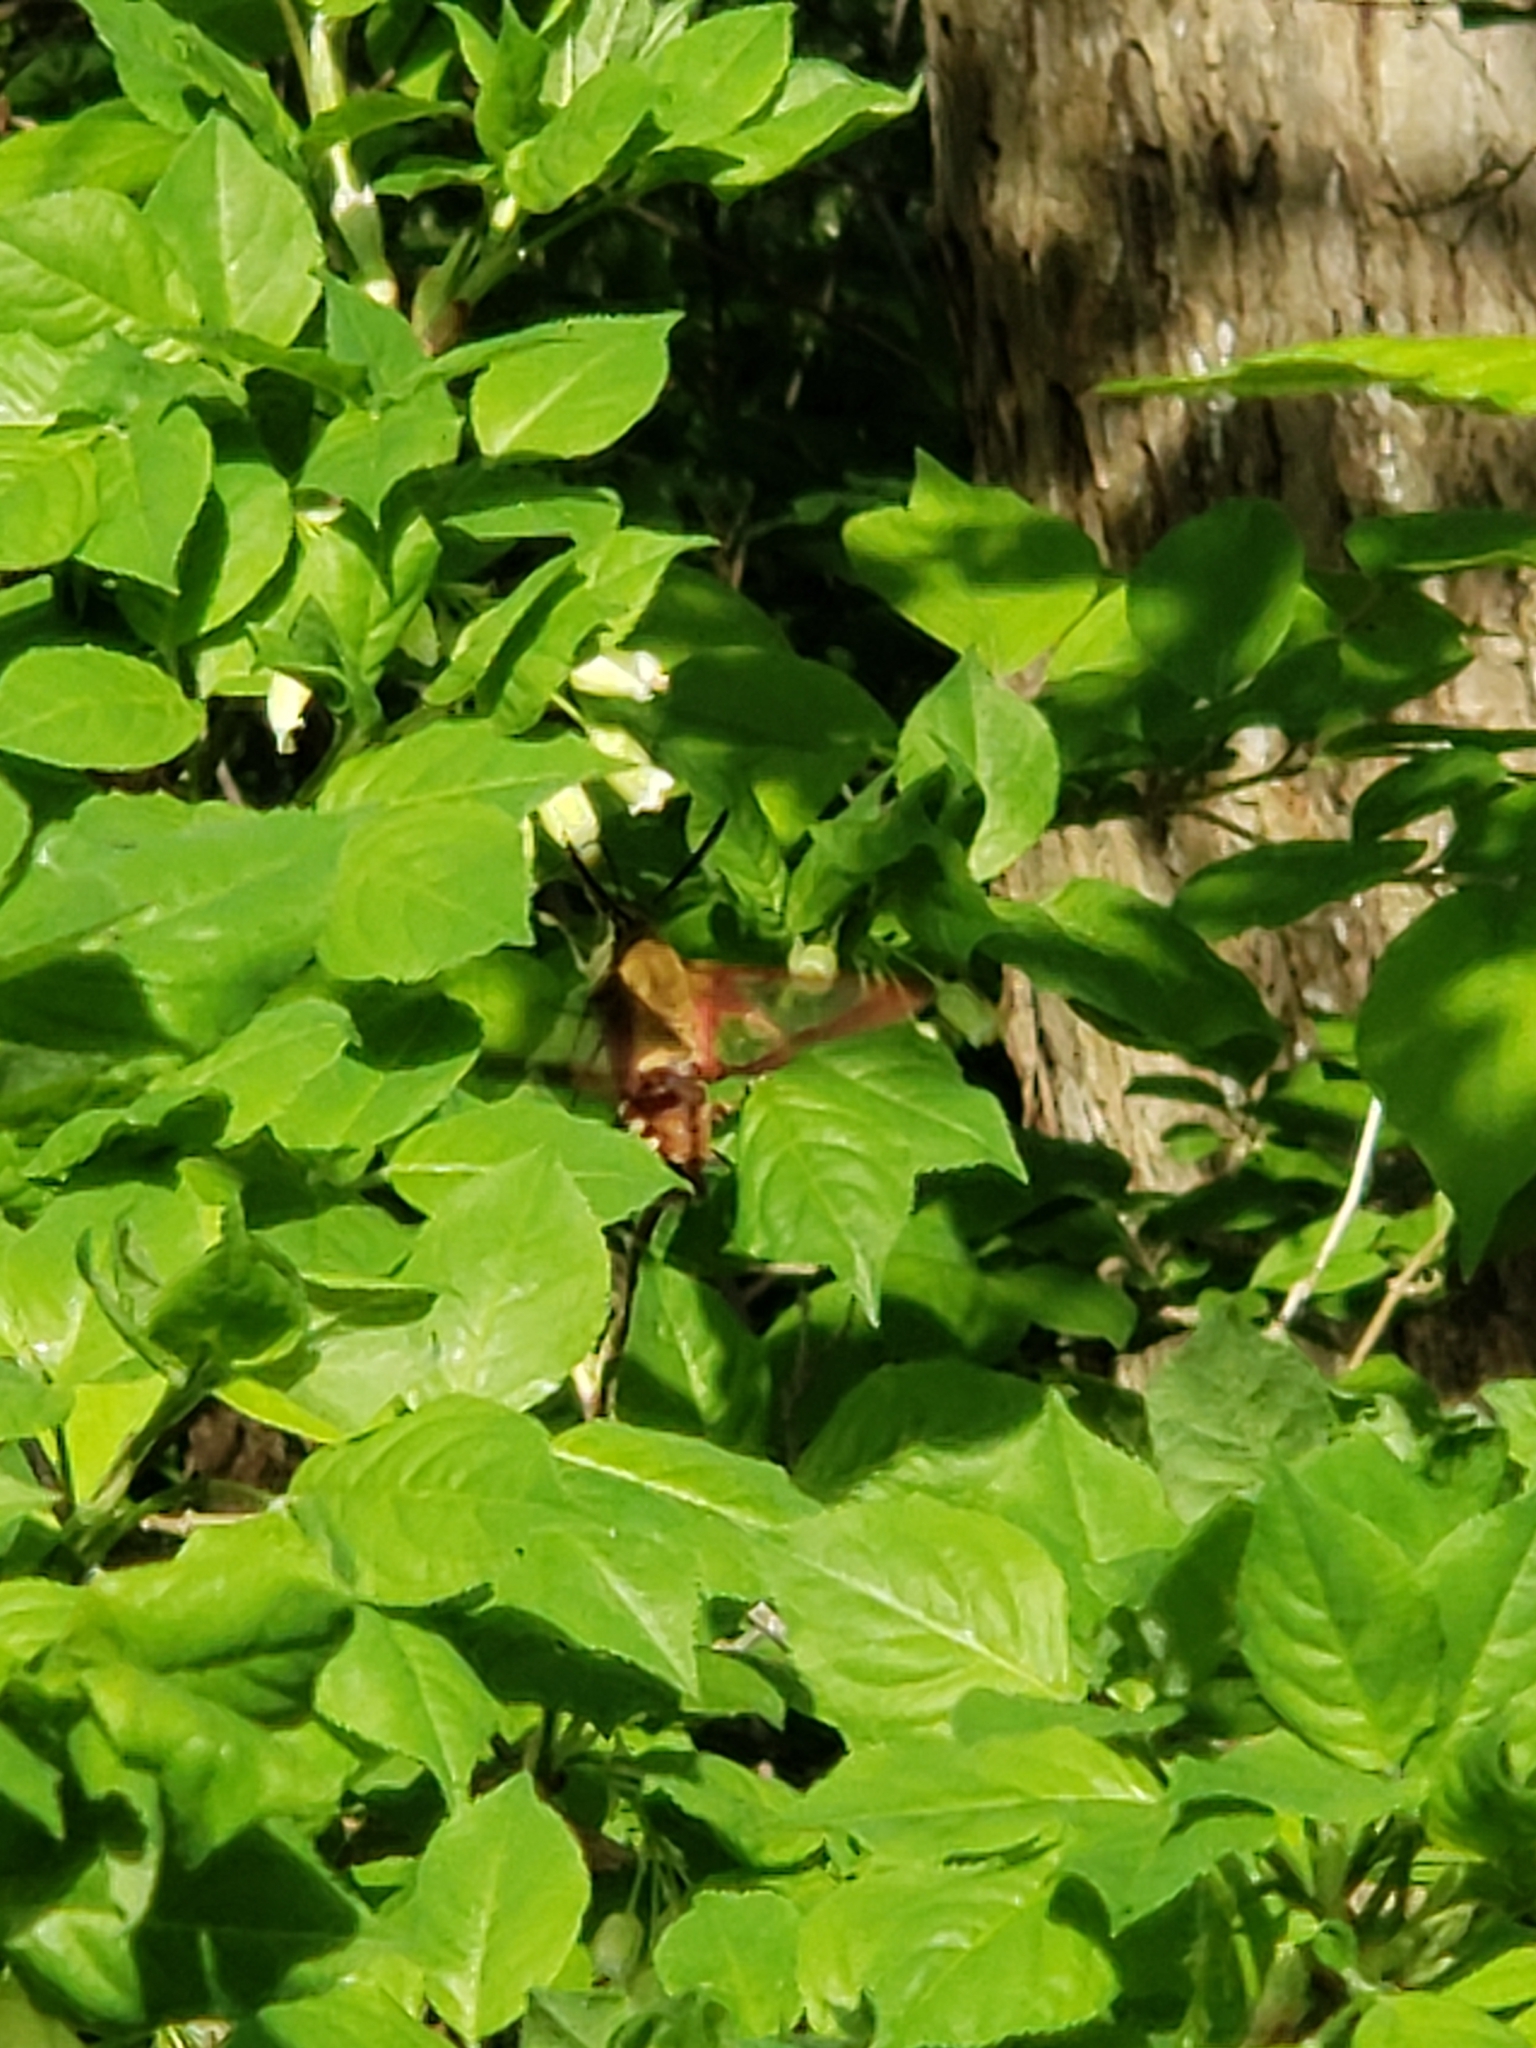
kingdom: Animalia
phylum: Arthropoda
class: Insecta
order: Lepidoptera
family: Sphingidae
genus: Hemaris
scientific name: Hemaris thysbe
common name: Common clear-wing
